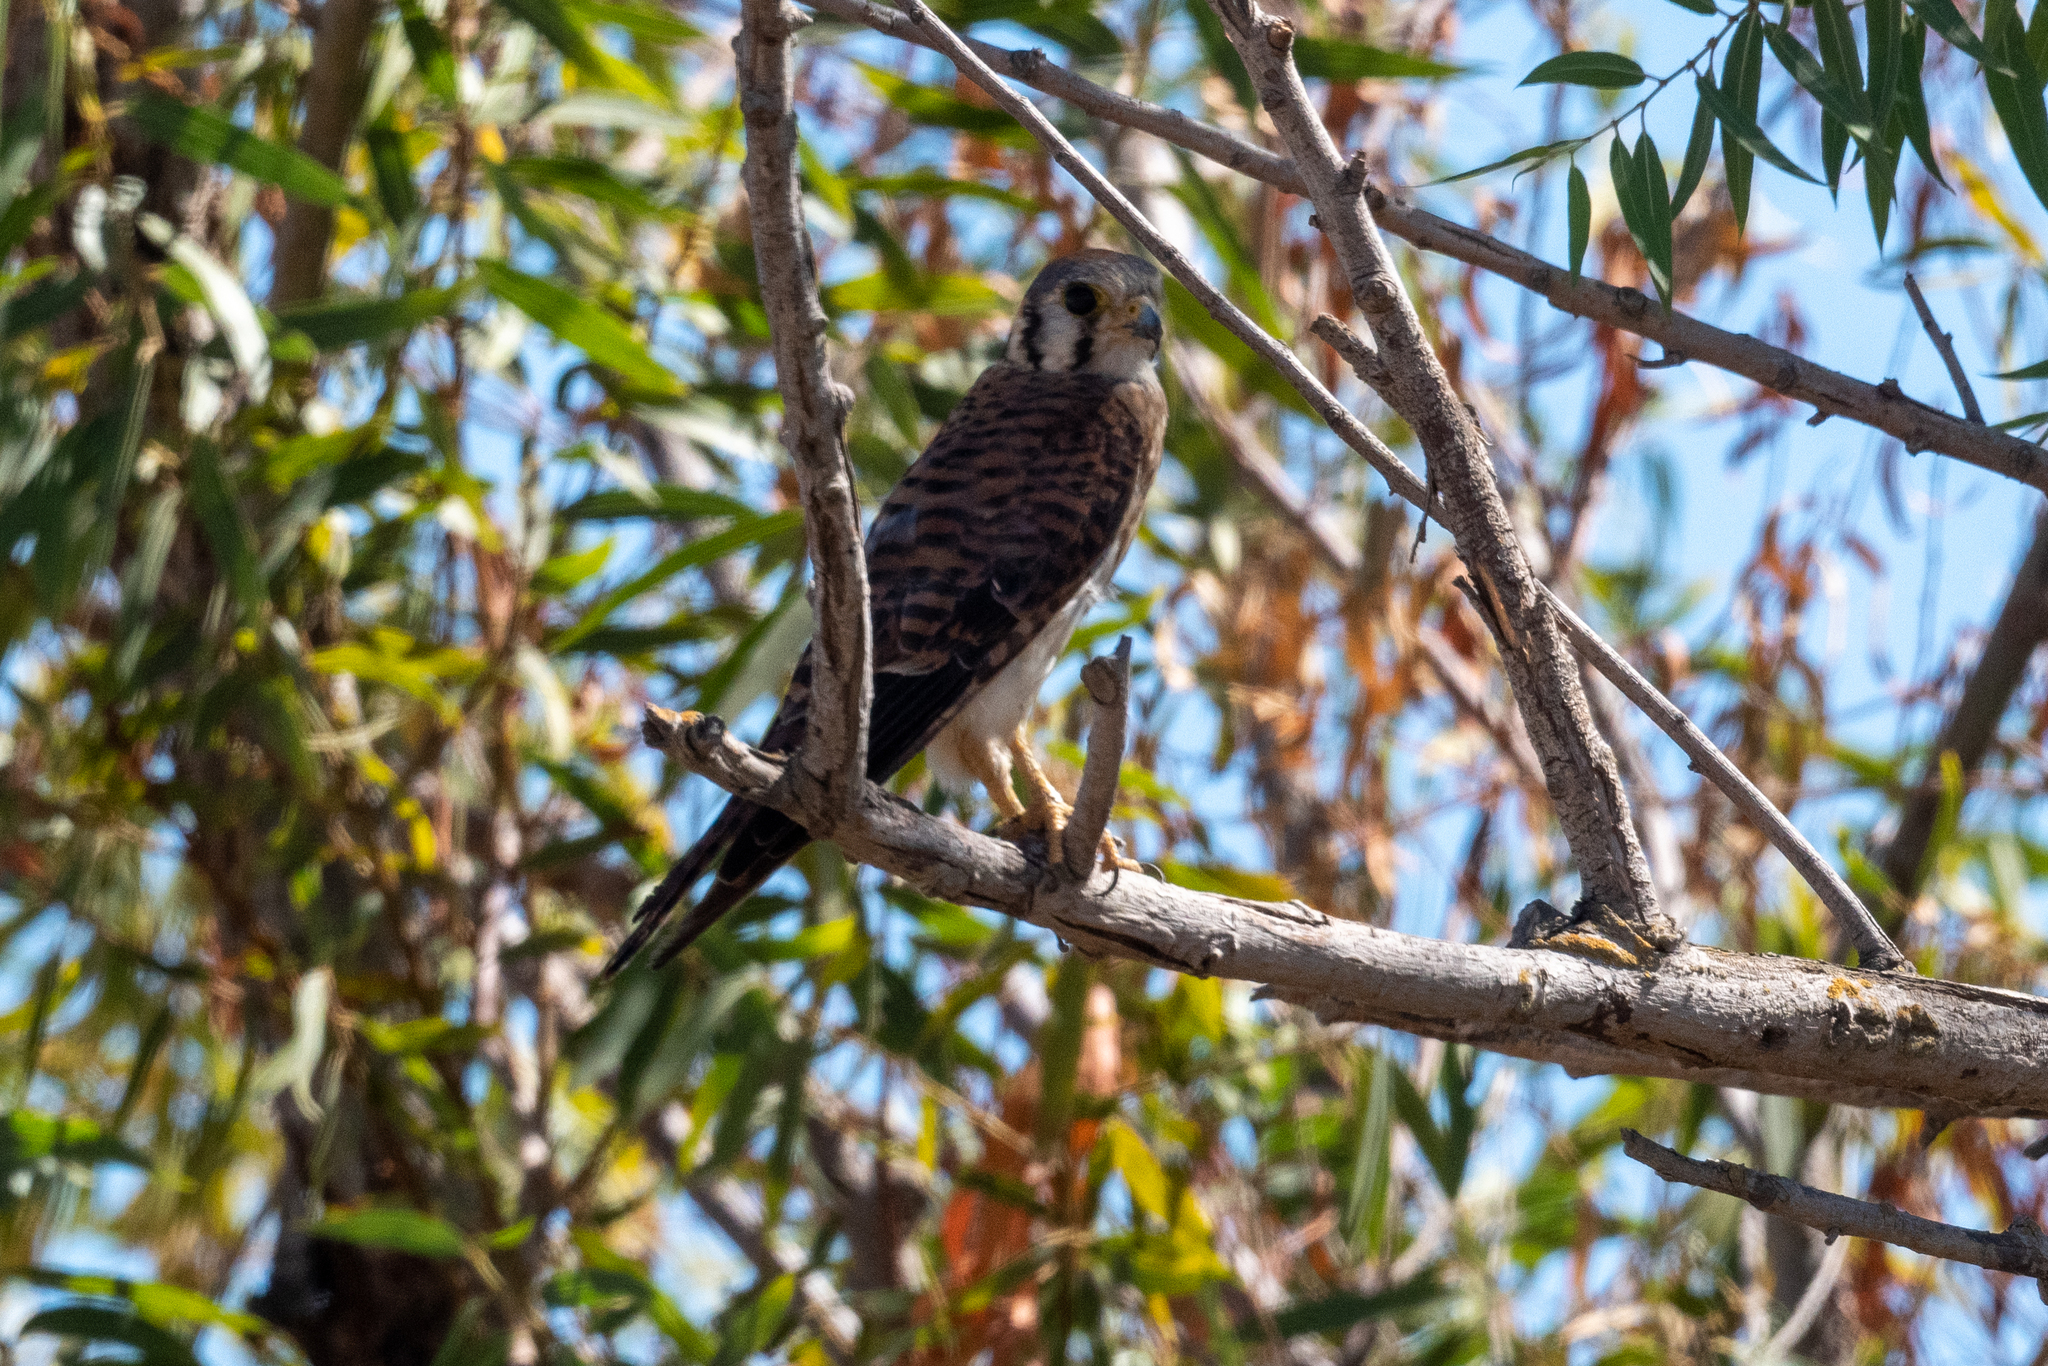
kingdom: Animalia
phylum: Chordata
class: Aves
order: Falconiformes
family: Falconidae
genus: Falco
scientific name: Falco sparverius
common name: American kestrel
